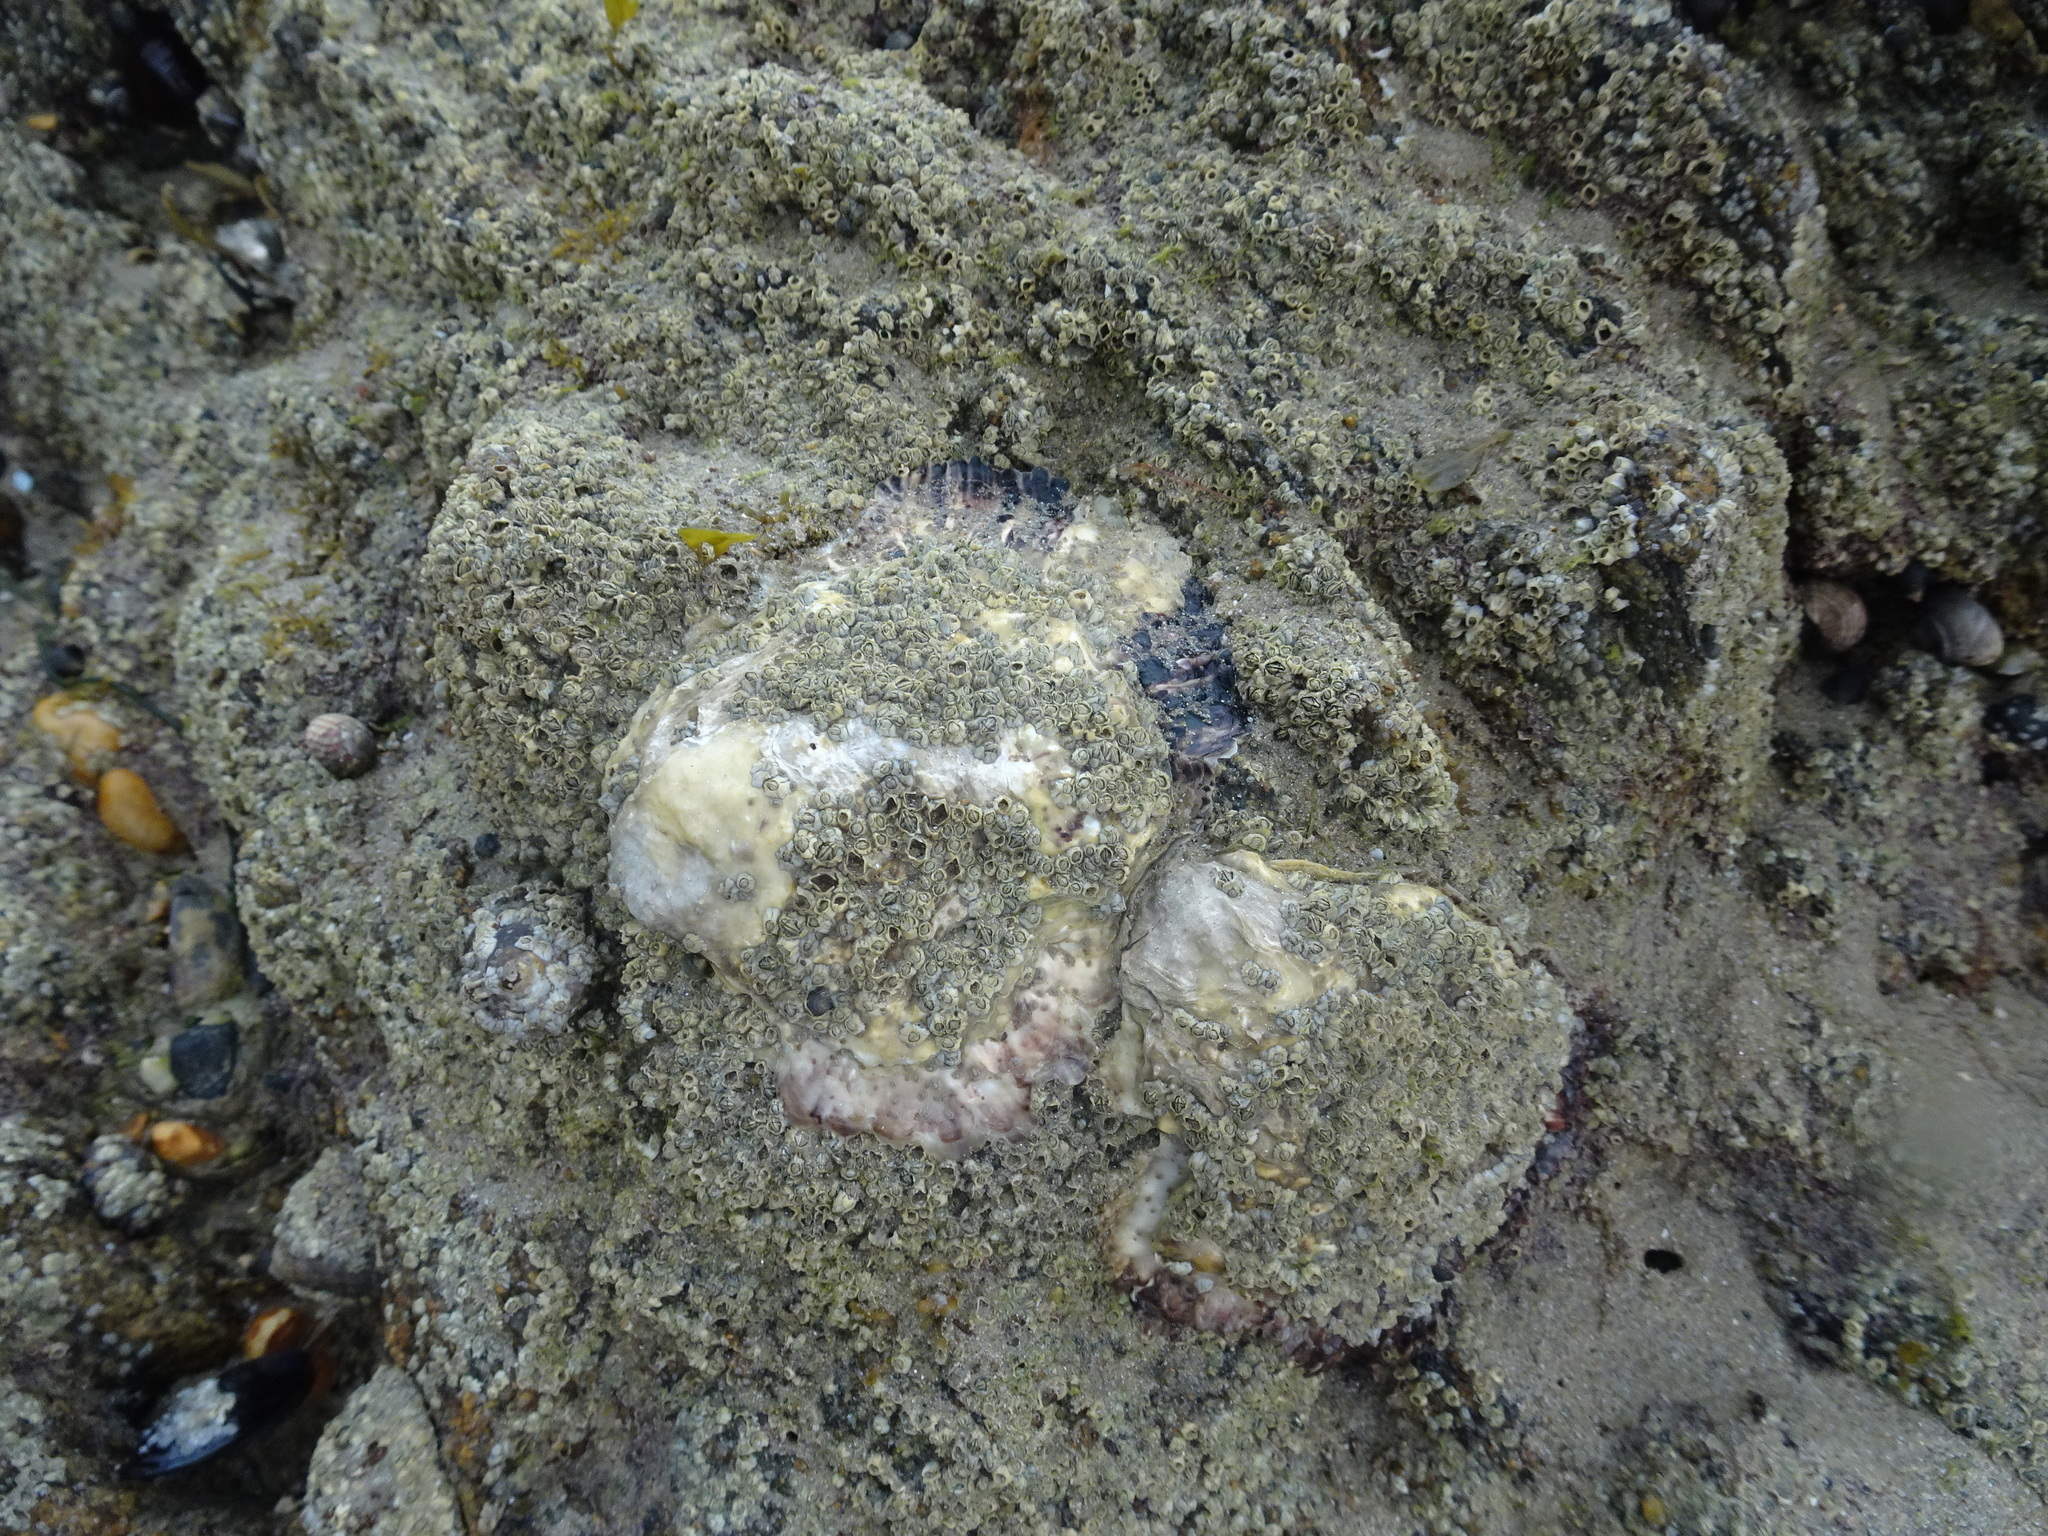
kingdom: Animalia
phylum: Mollusca
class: Bivalvia
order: Ostreida
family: Ostreidae
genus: Magallana
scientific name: Magallana gigas
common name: Pacific oyster
